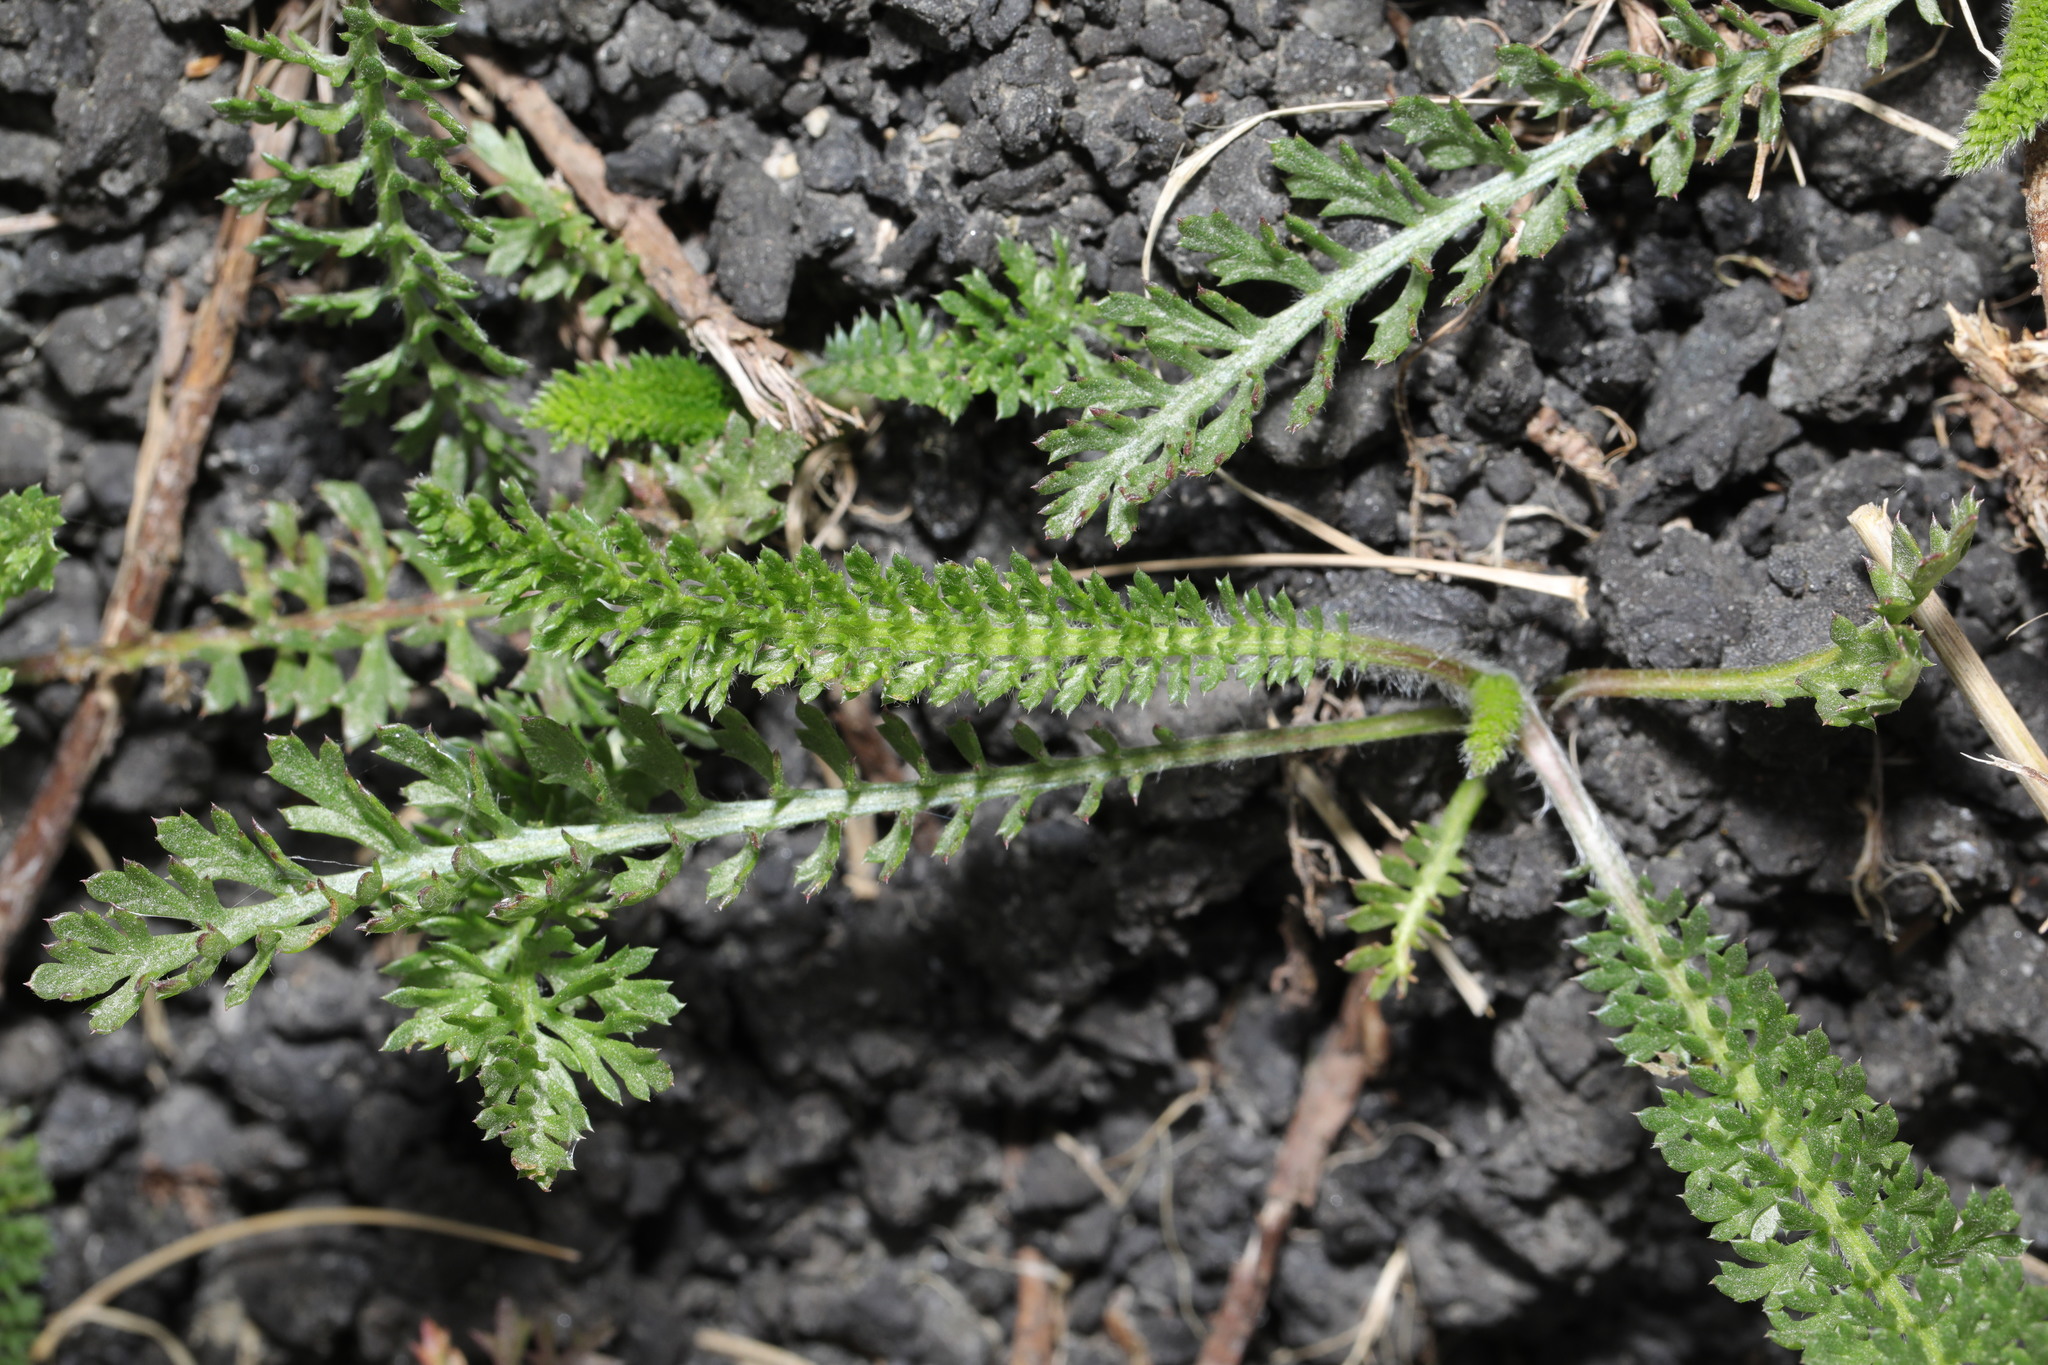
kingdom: Plantae
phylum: Tracheophyta
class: Magnoliopsida
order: Asterales
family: Asteraceae
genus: Achillea
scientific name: Achillea millefolium
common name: Yarrow
